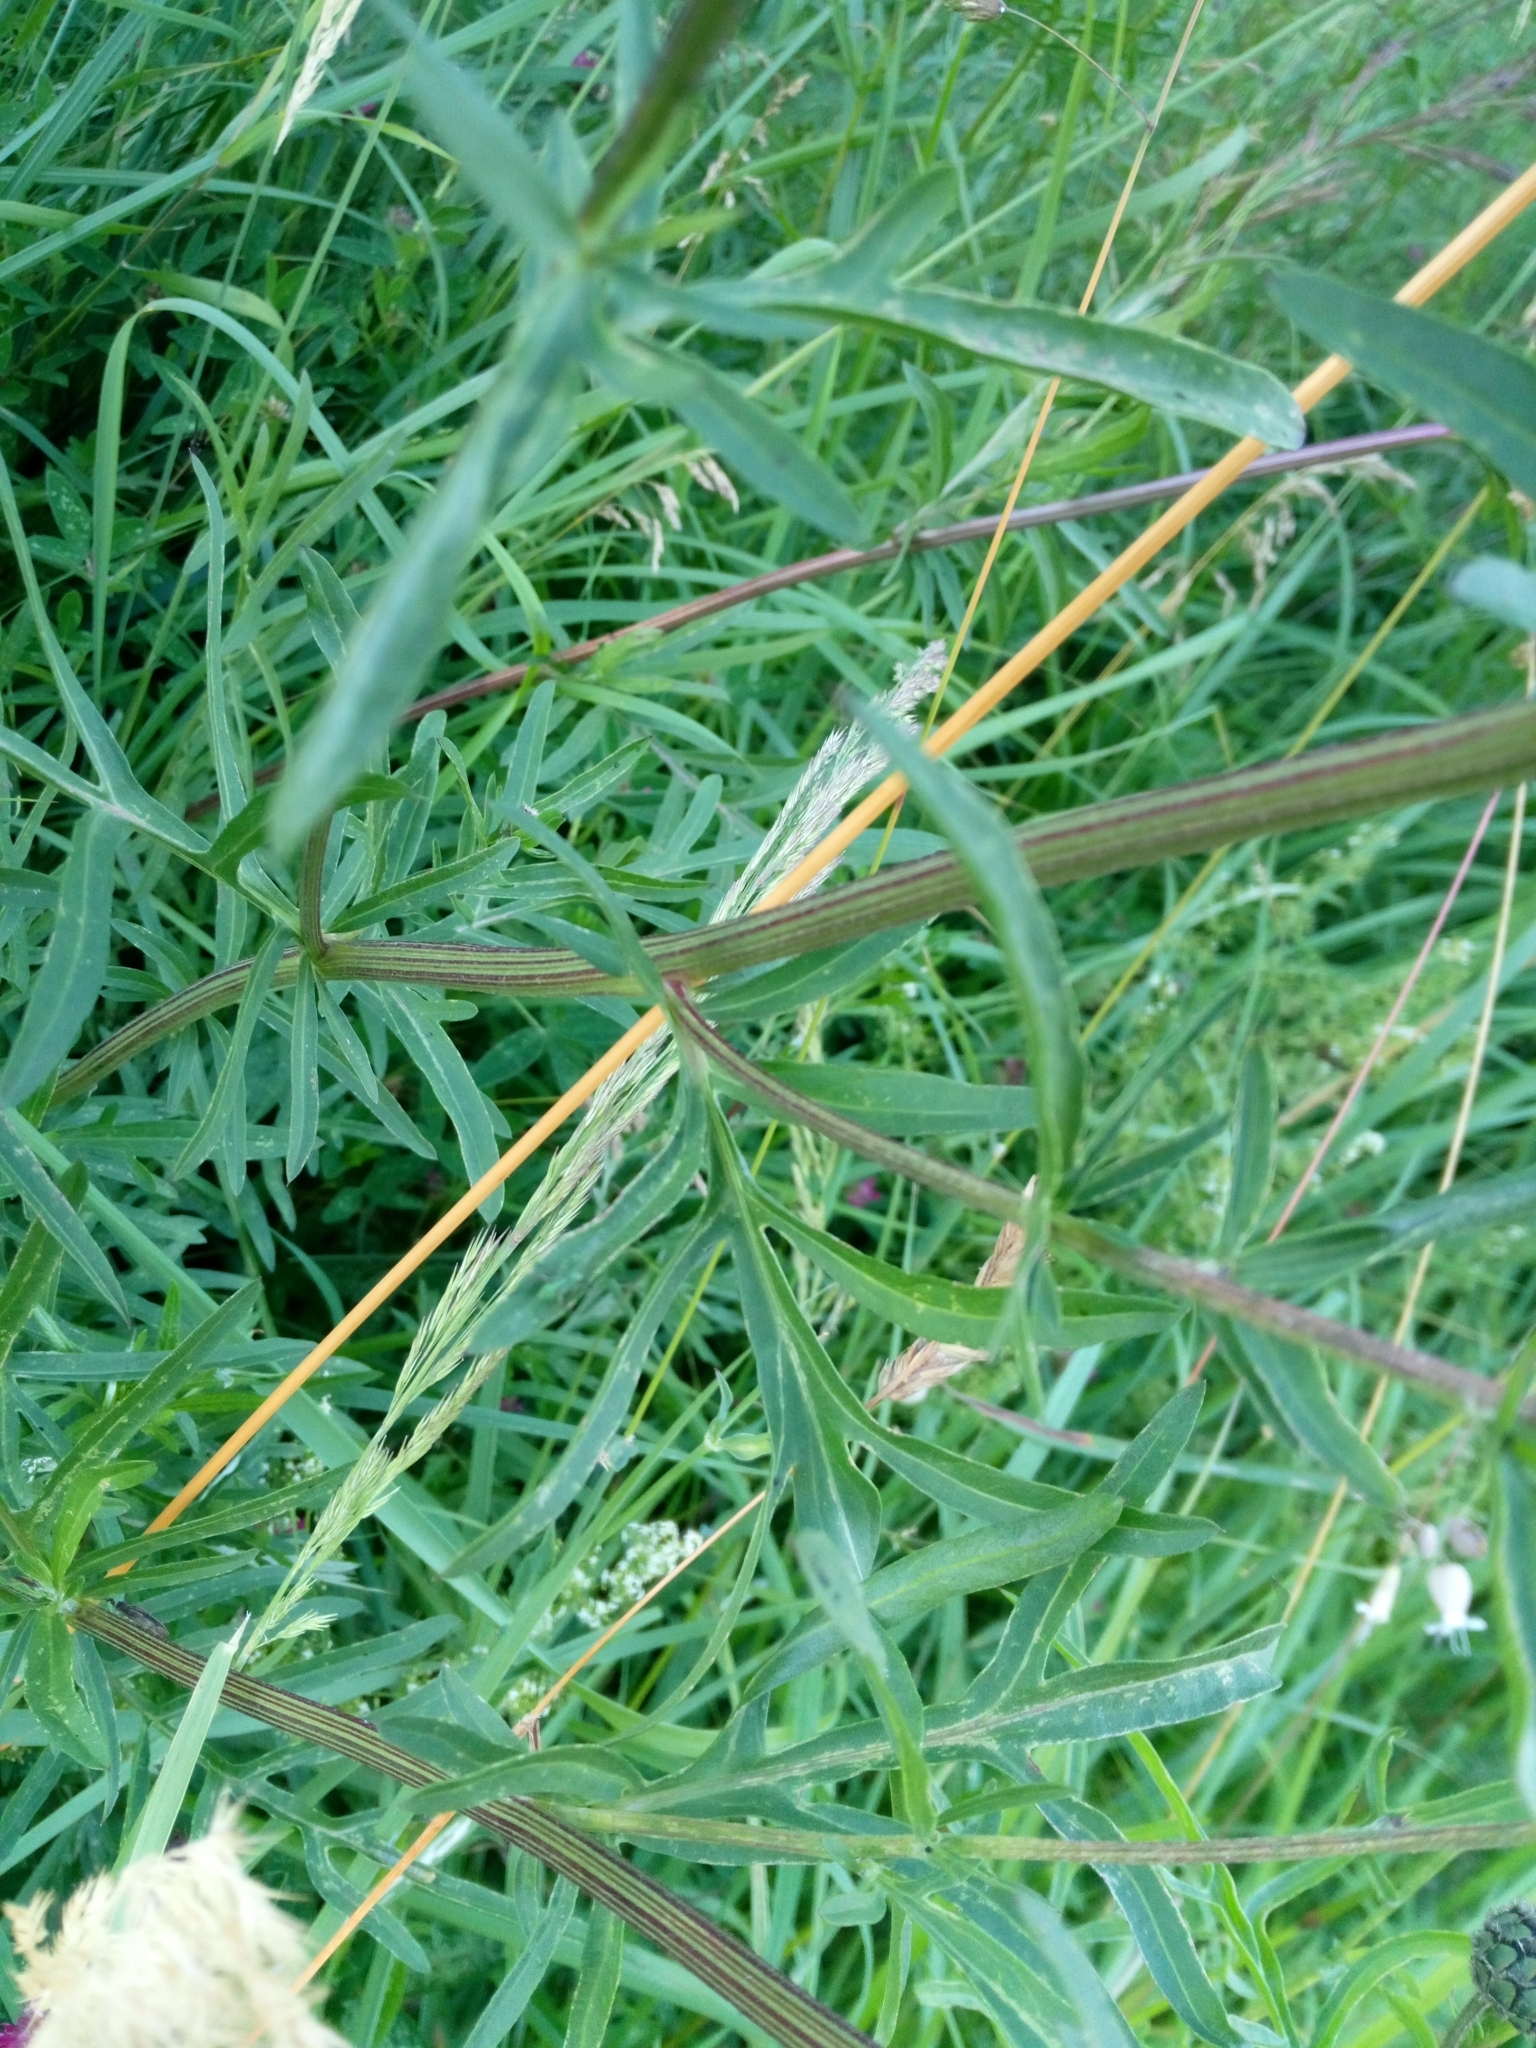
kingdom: Plantae
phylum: Tracheophyta
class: Magnoliopsida
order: Asterales
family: Asteraceae
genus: Centaurea
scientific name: Centaurea scabiosa
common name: Greater knapweed
